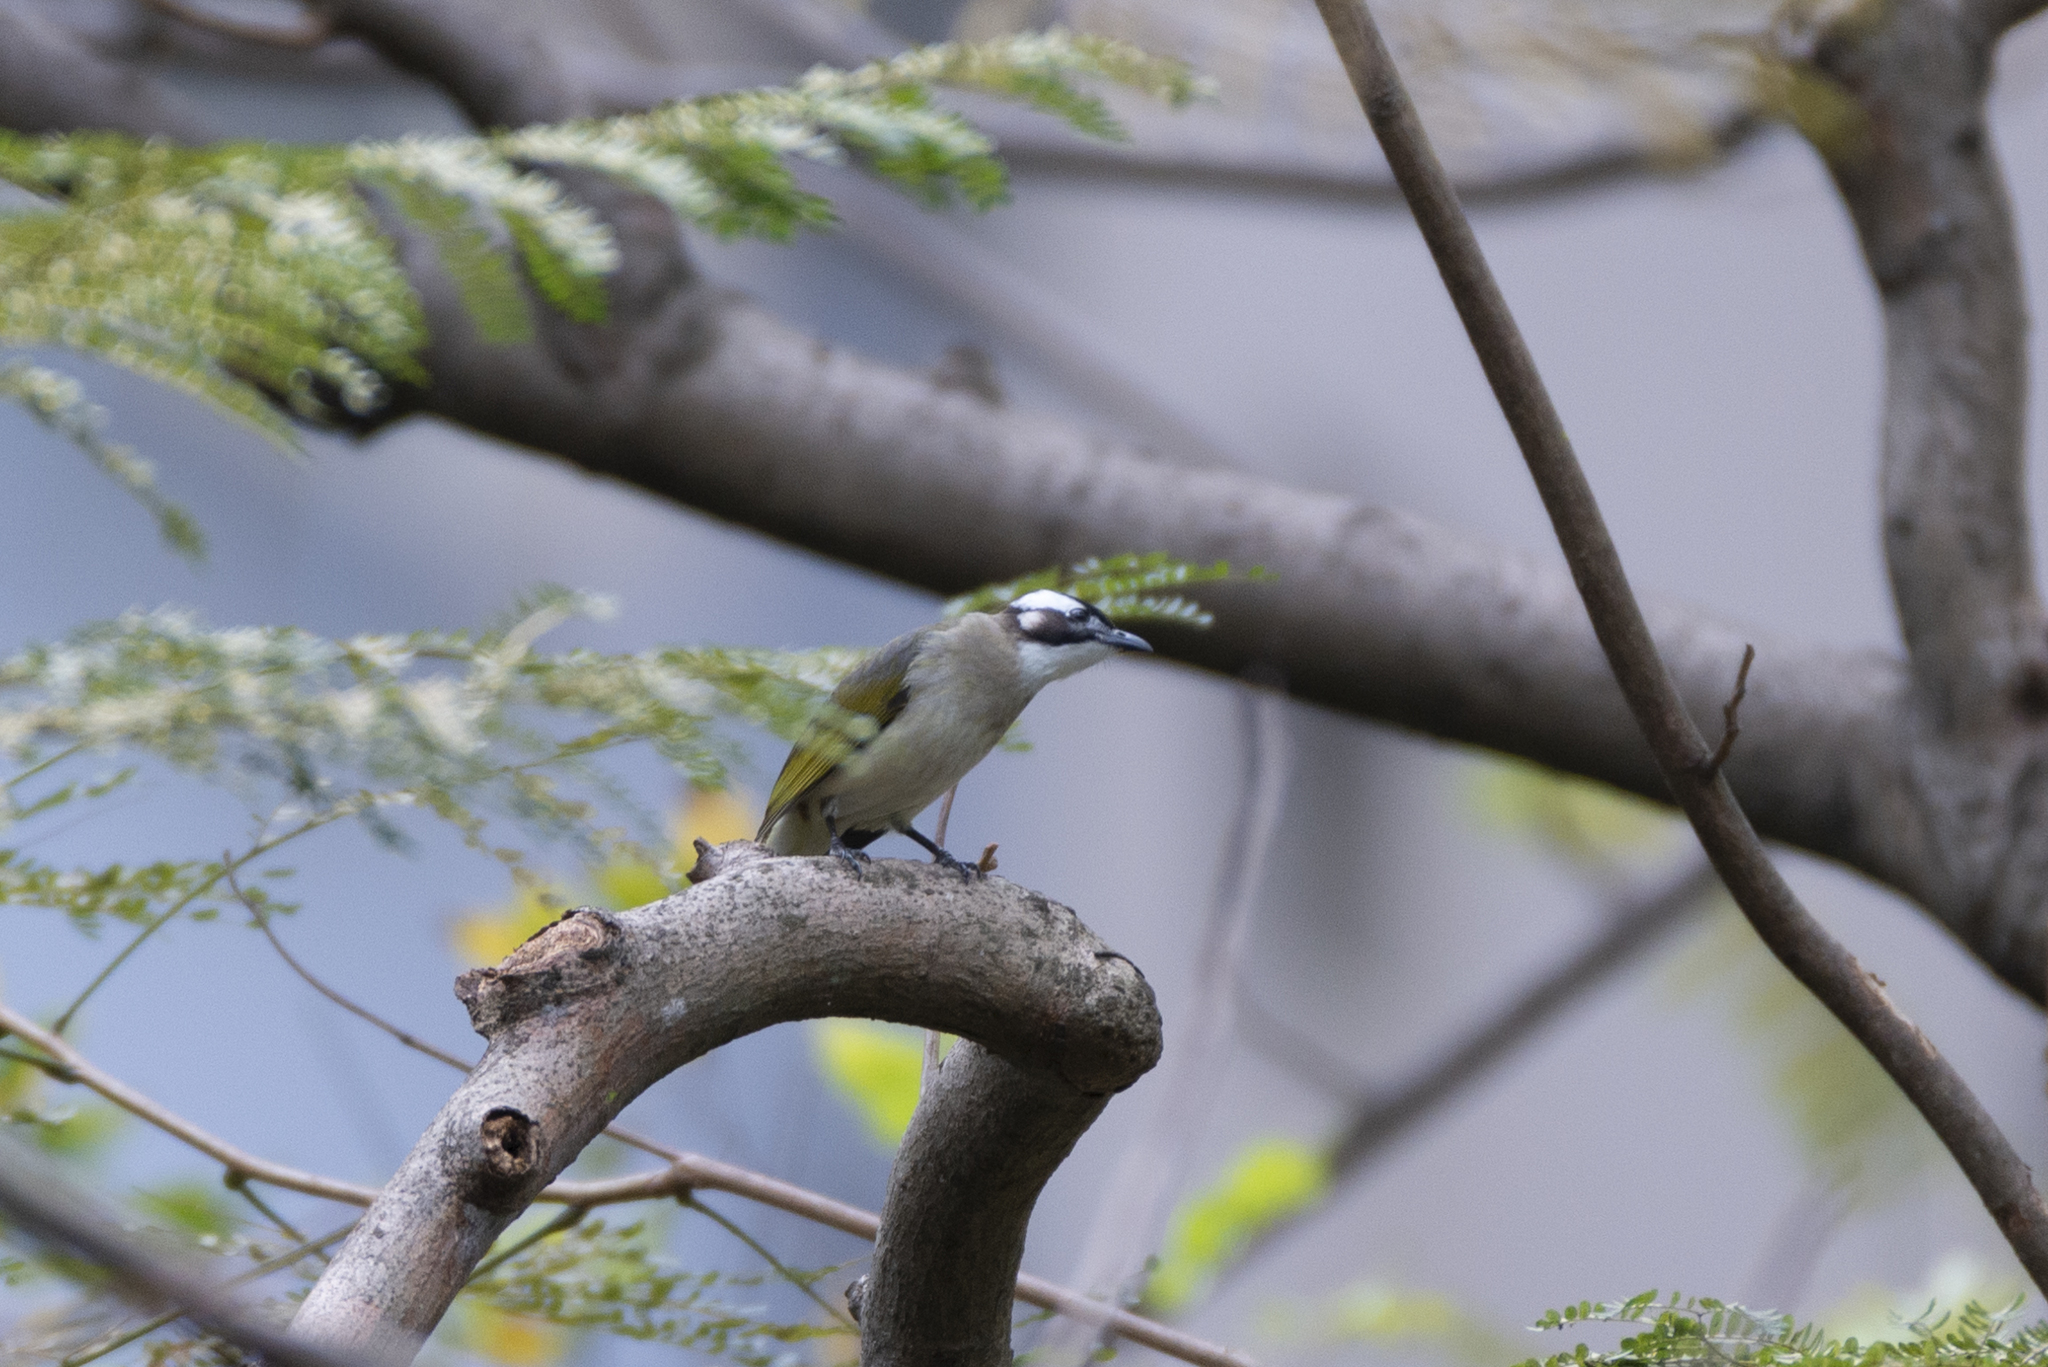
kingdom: Animalia
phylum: Chordata
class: Aves
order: Passeriformes
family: Pycnonotidae
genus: Pycnonotus
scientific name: Pycnonotus sinensis
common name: Light-vented bulbul
